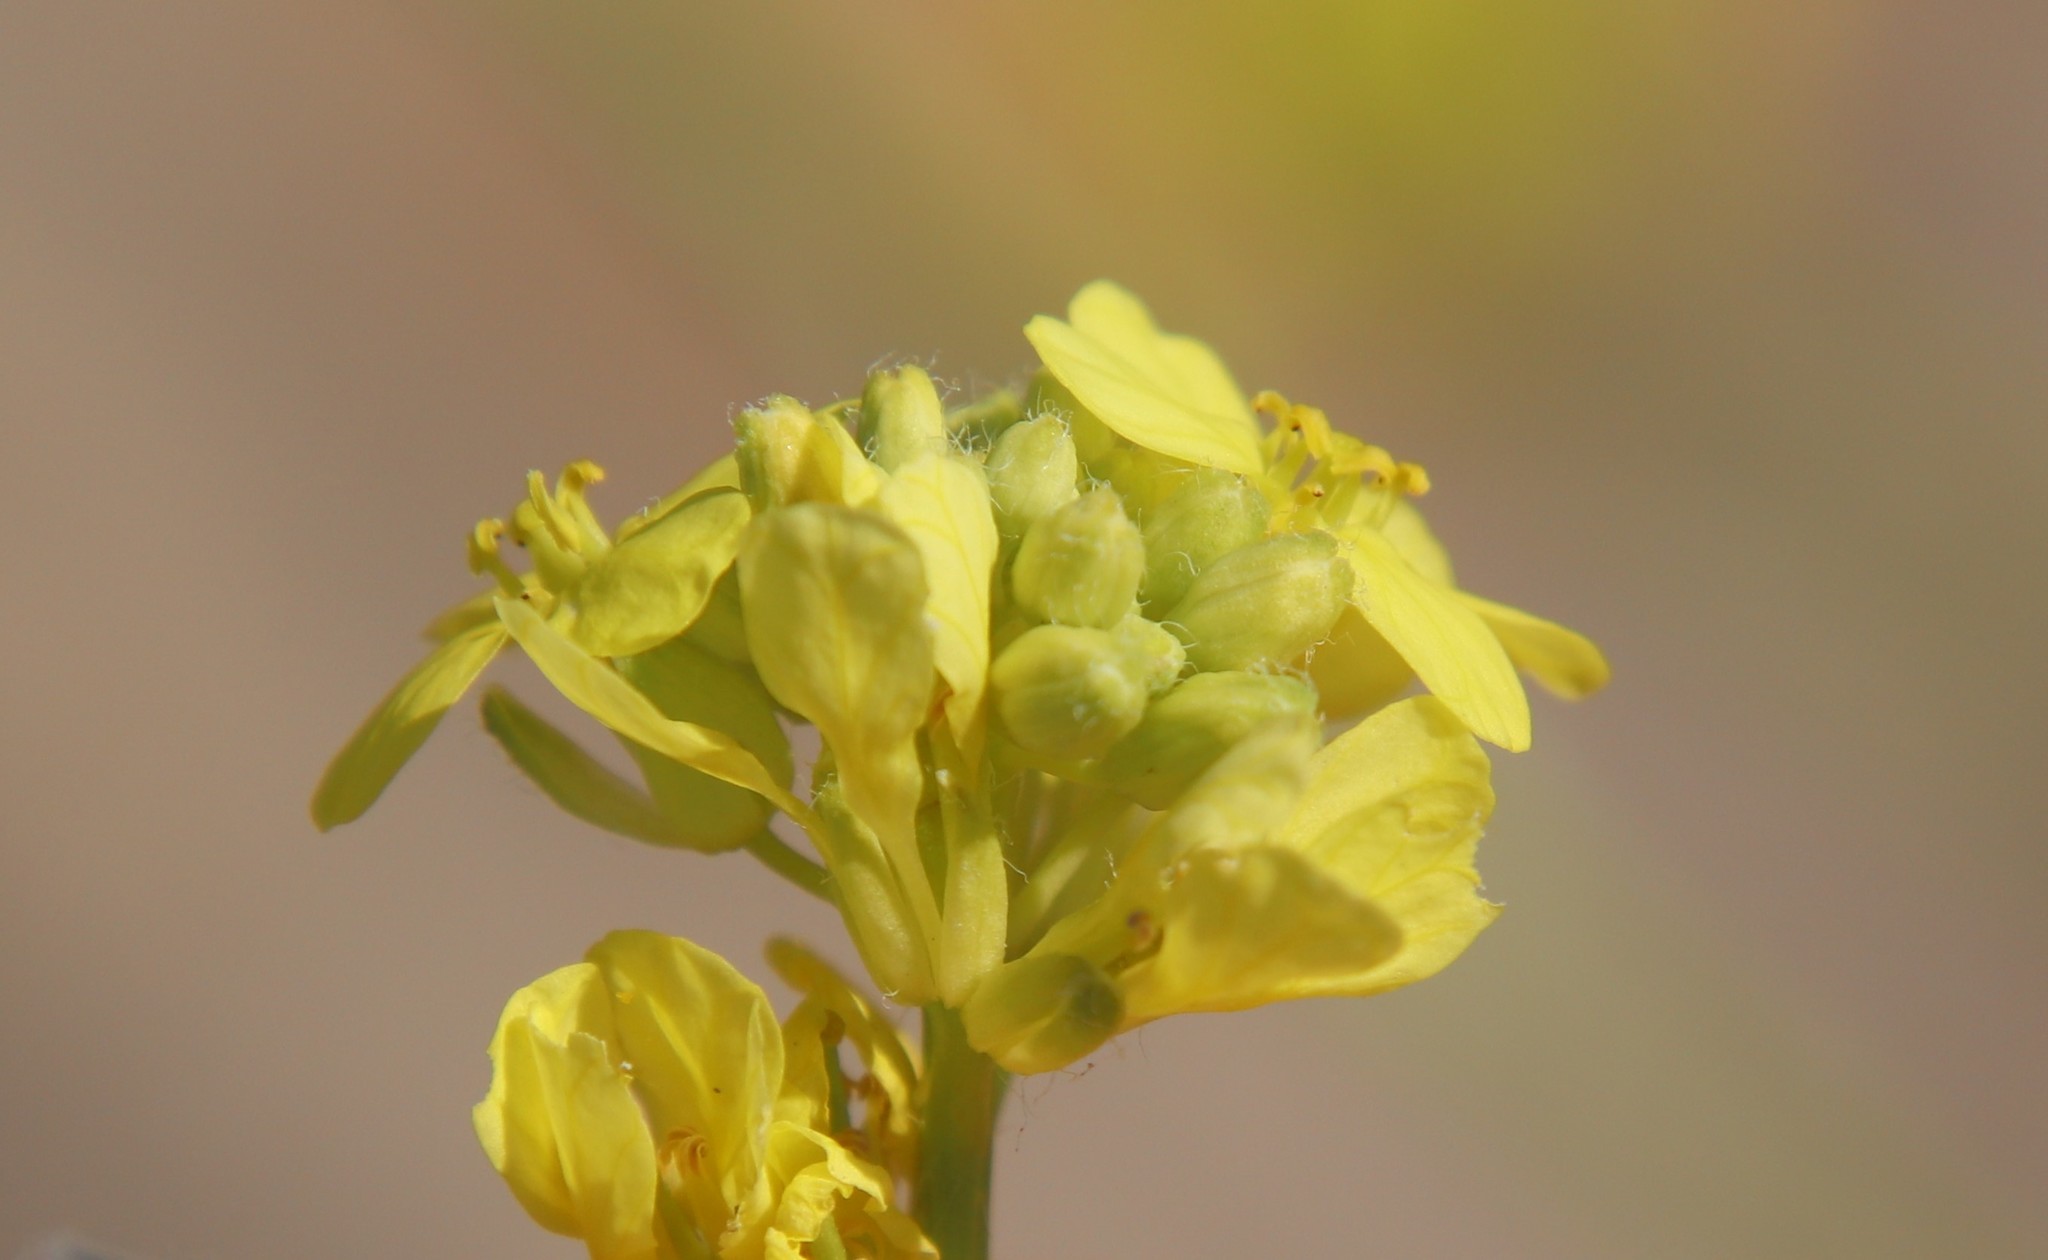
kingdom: Plantae
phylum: Tracheophyta
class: Magnoliopsida
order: Brassicales
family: Brassicaceae
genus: Hirschfeldia
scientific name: Hirschfeldia incana
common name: Hoary mustard
